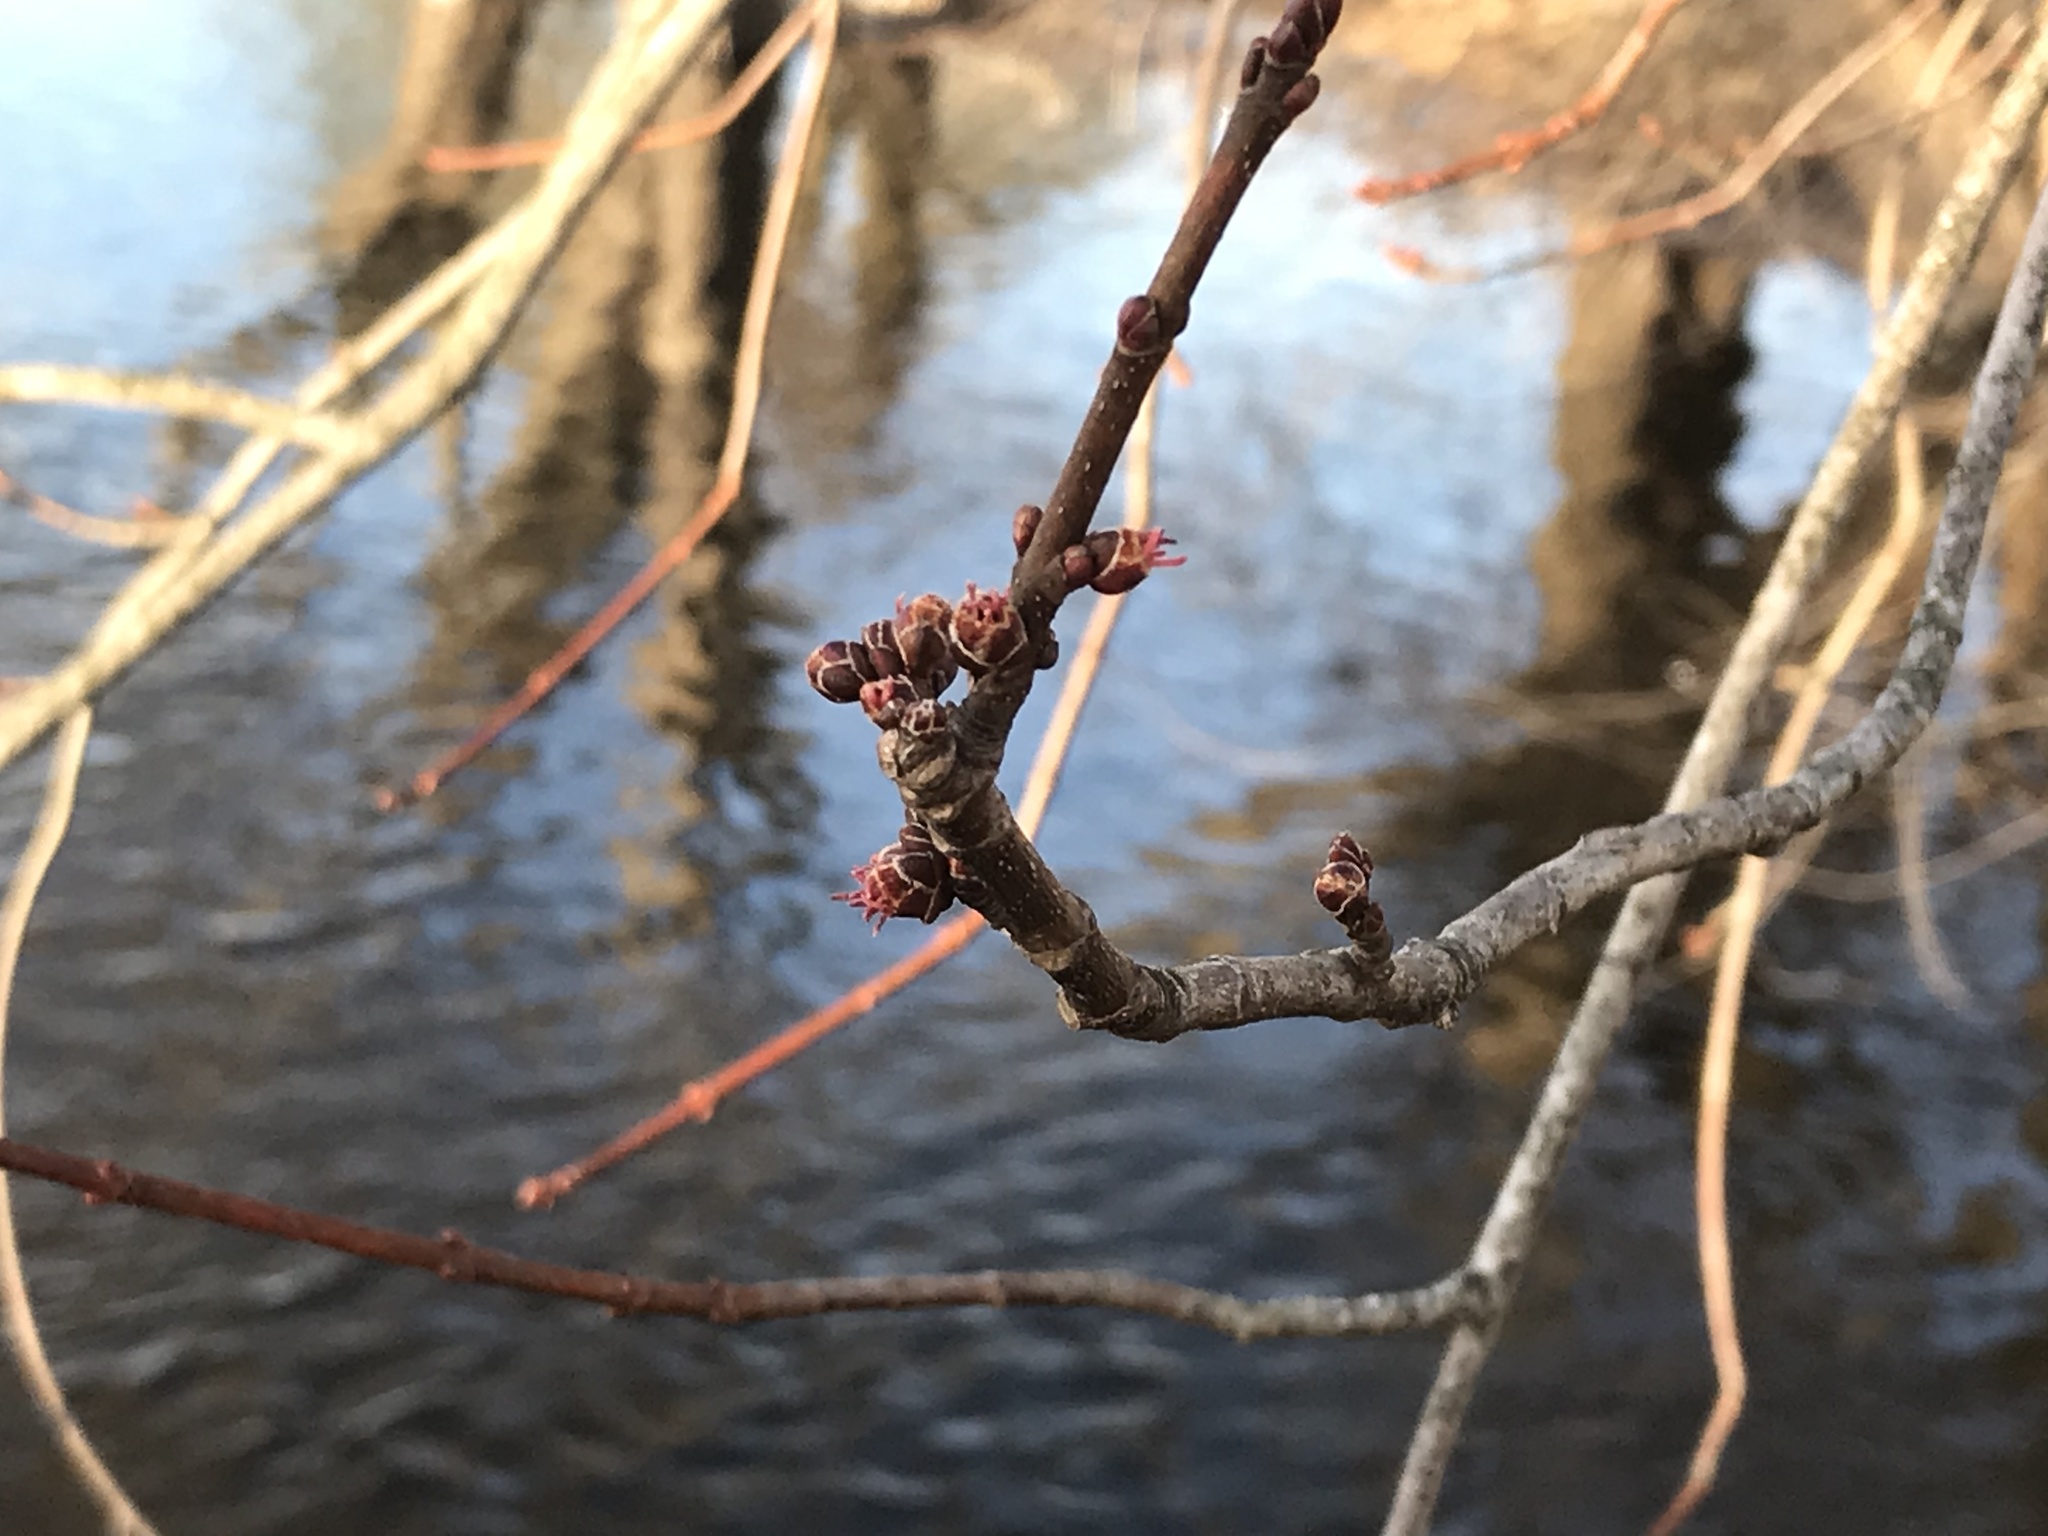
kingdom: Plantae
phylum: Tracheophyta
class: Magnoliopsida
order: Sapindales
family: Sapindaceae
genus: Acer
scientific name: Acer saccharinum
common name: Silver maple
